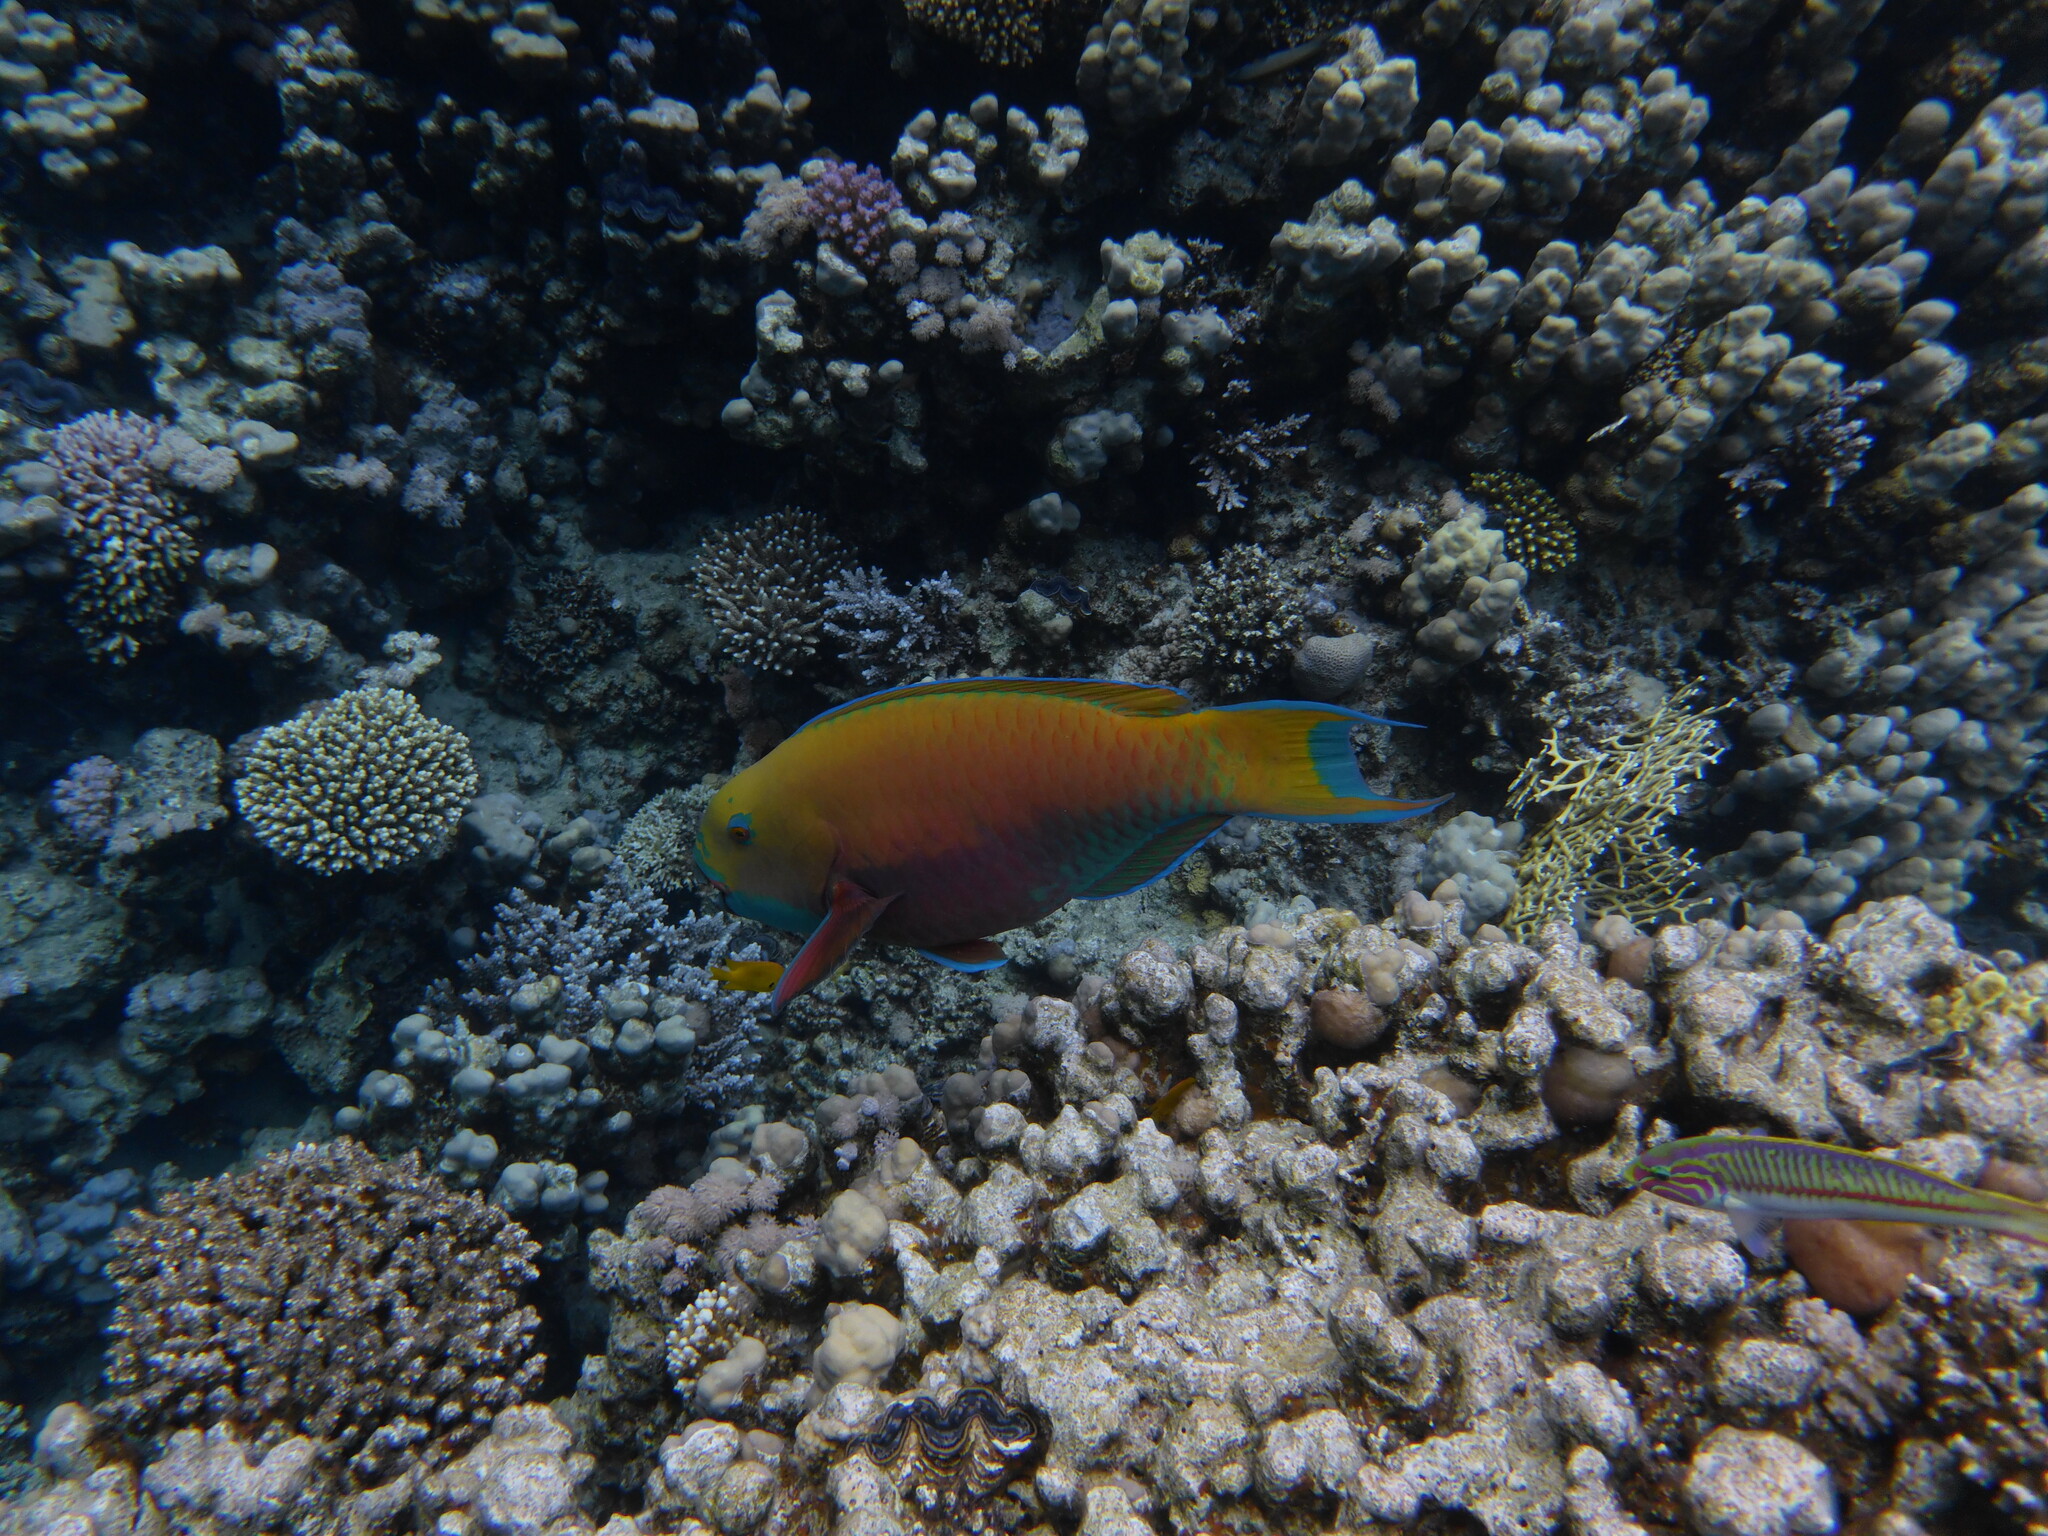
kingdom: Animalia
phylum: Chordata
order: Perciformes
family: Scaridae
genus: Chlorurus
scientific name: Chlorurus gibbus
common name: Heavybeak parrotfish
